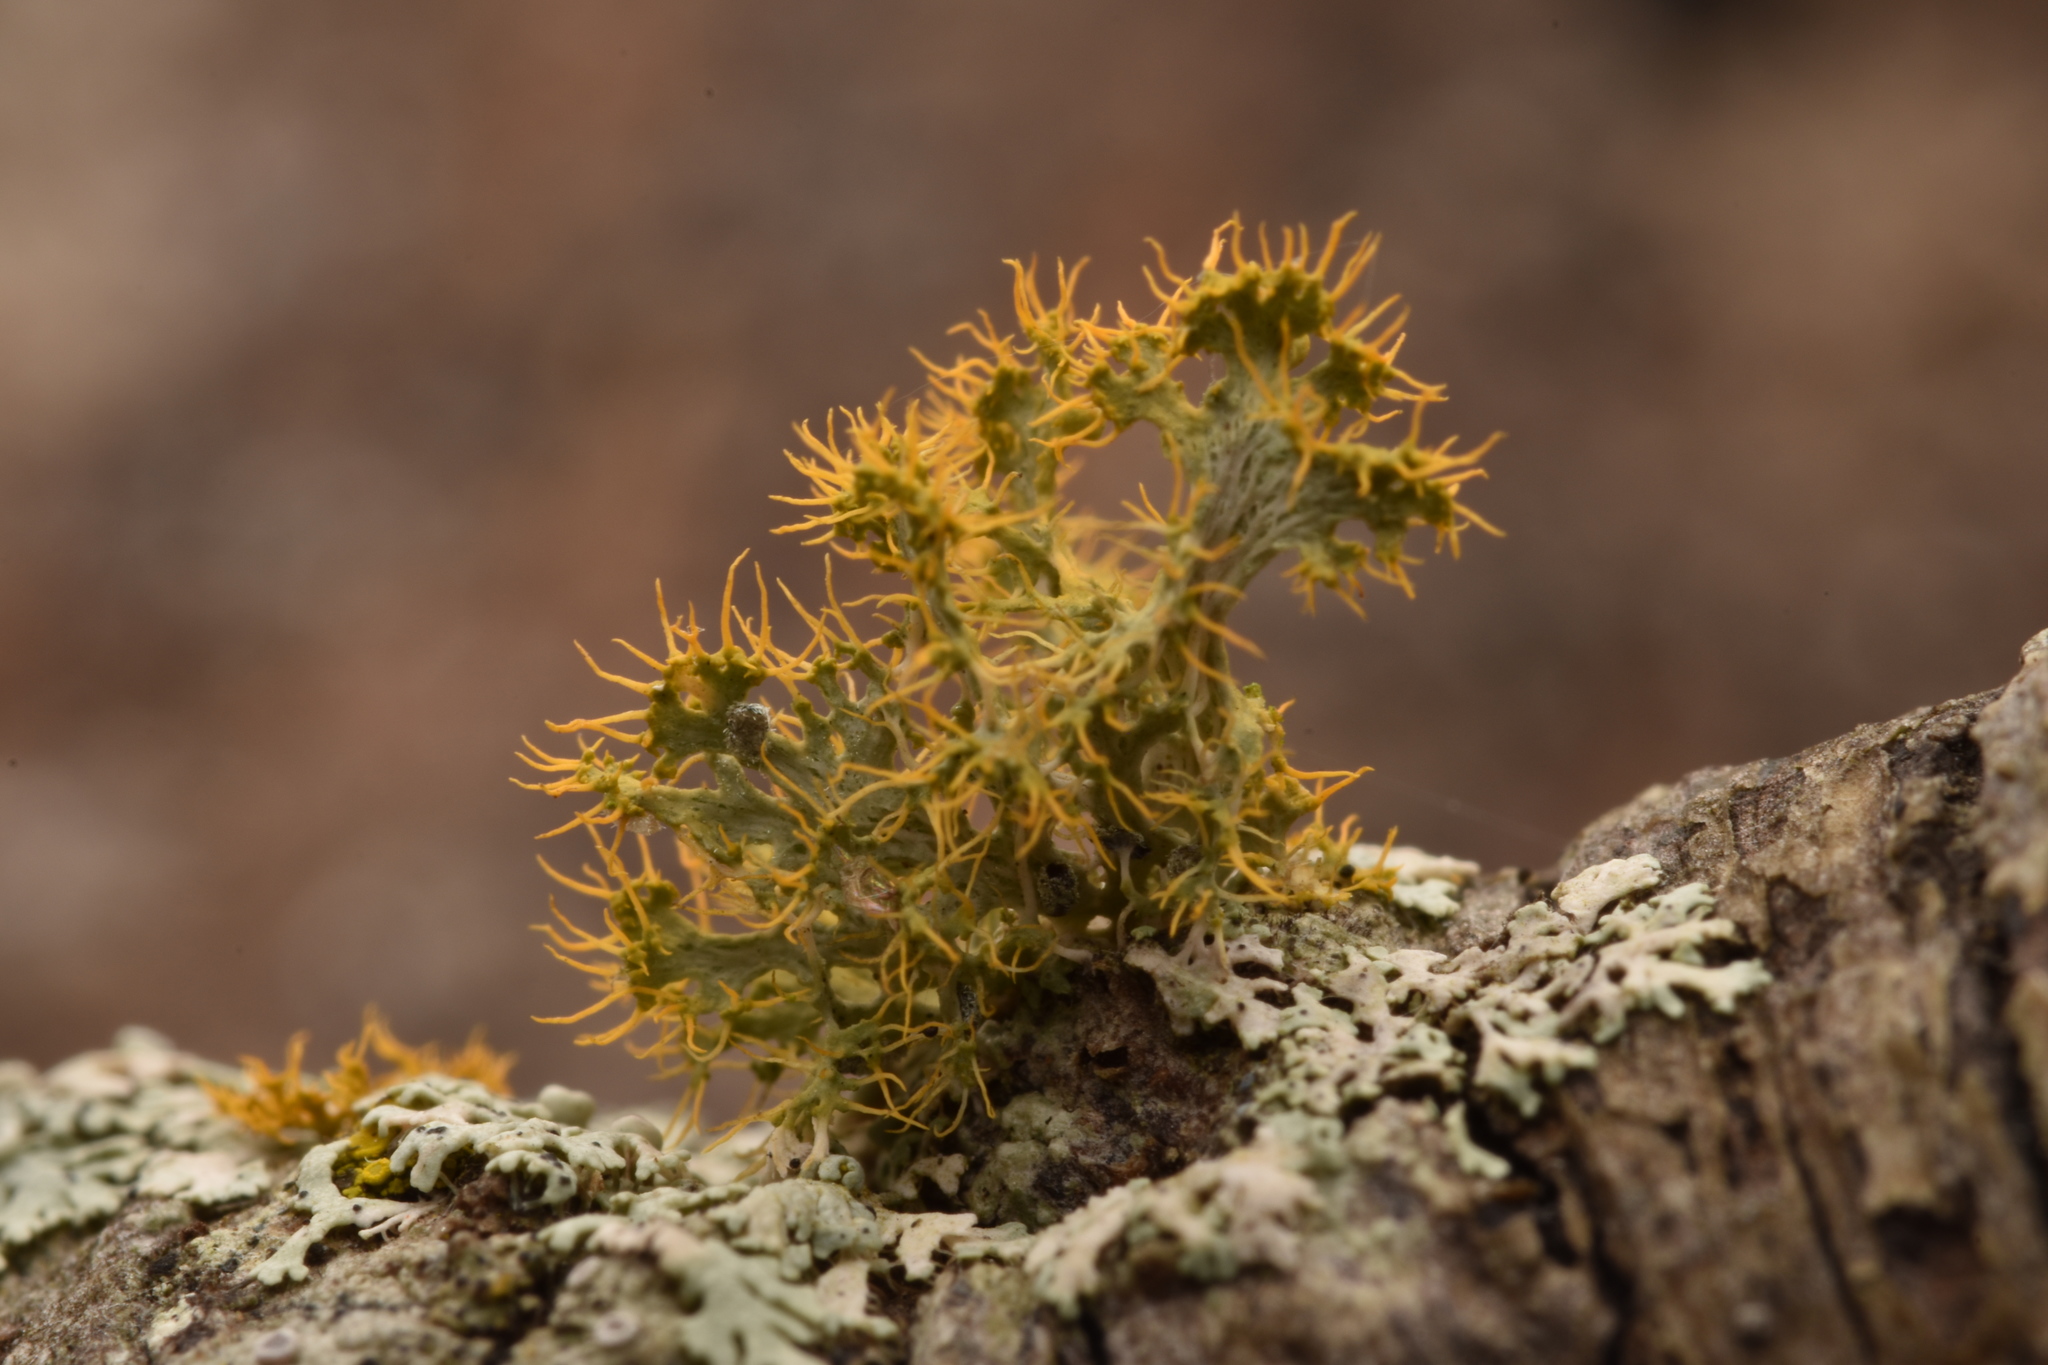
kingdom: Fungi
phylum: Ascomycota
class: Lecanoromycetes
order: Teloschistales
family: Teloschistaceae
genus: Niorma
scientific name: Niorma chrysophthalma
